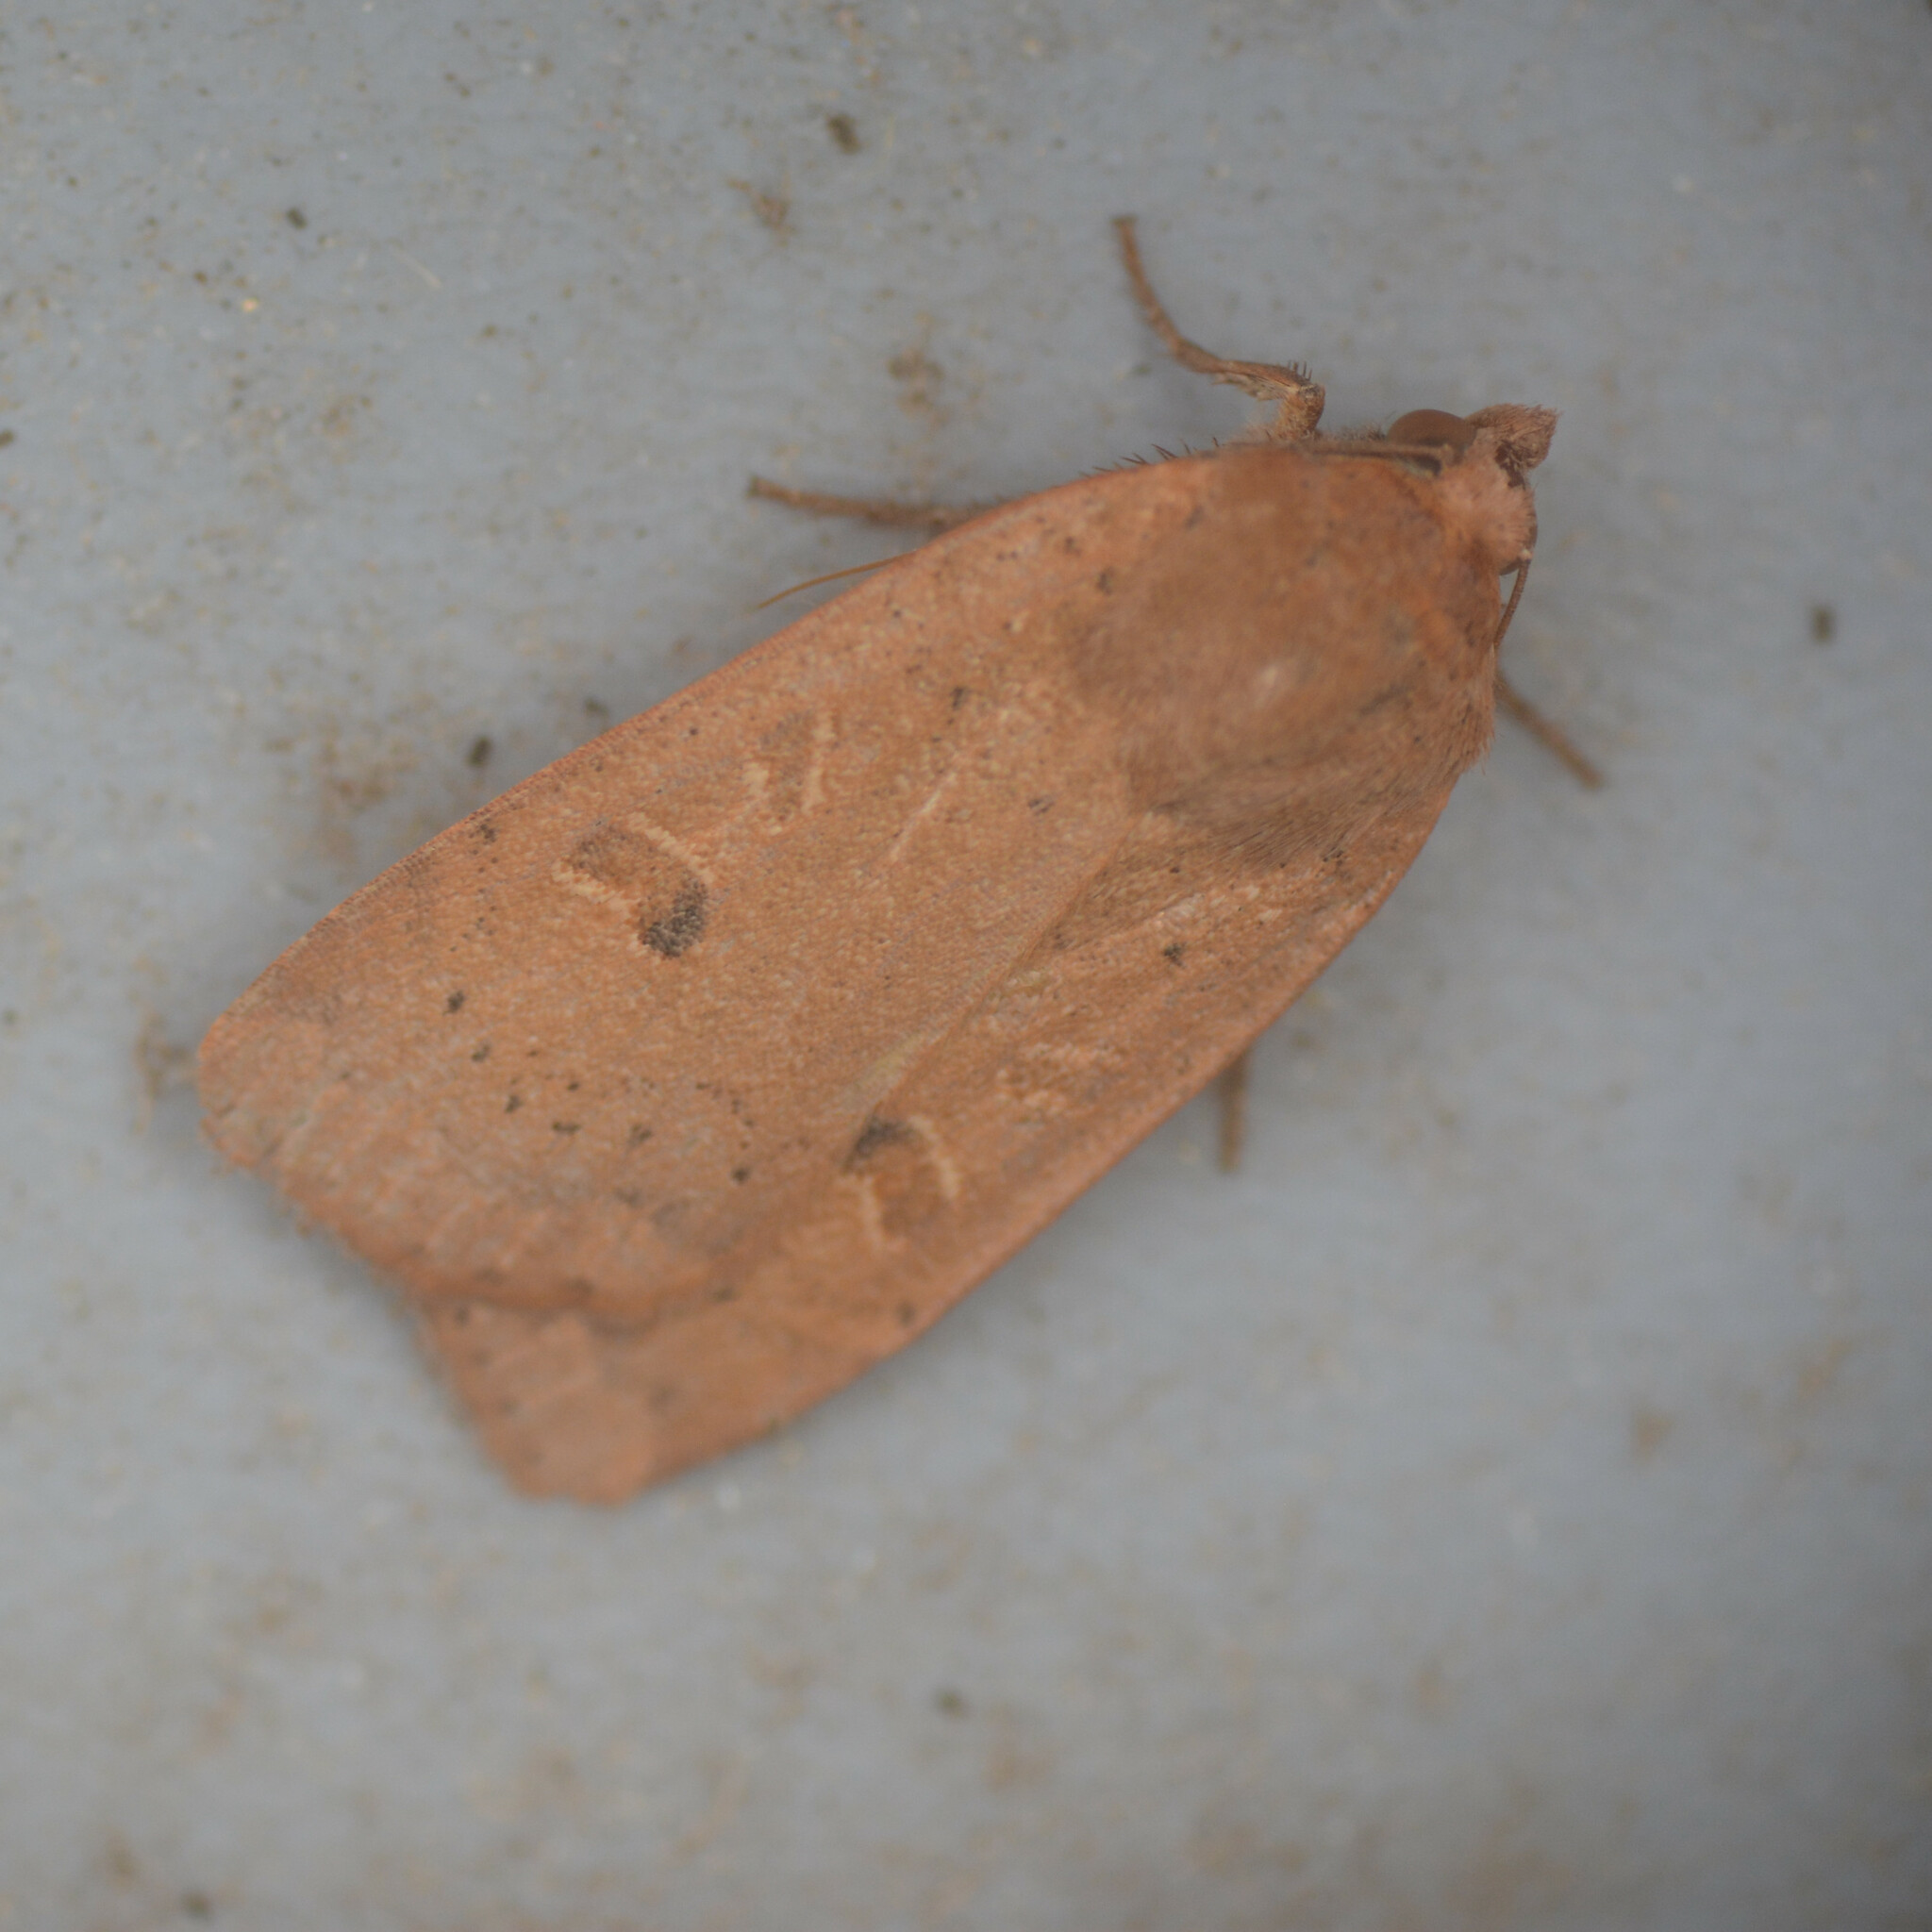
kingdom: Animalia
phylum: Arthropoda
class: Insecta
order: Lepidoptera
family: Noctuidae
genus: Noctua
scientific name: Noctua comes
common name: Lesser yellow underwing
